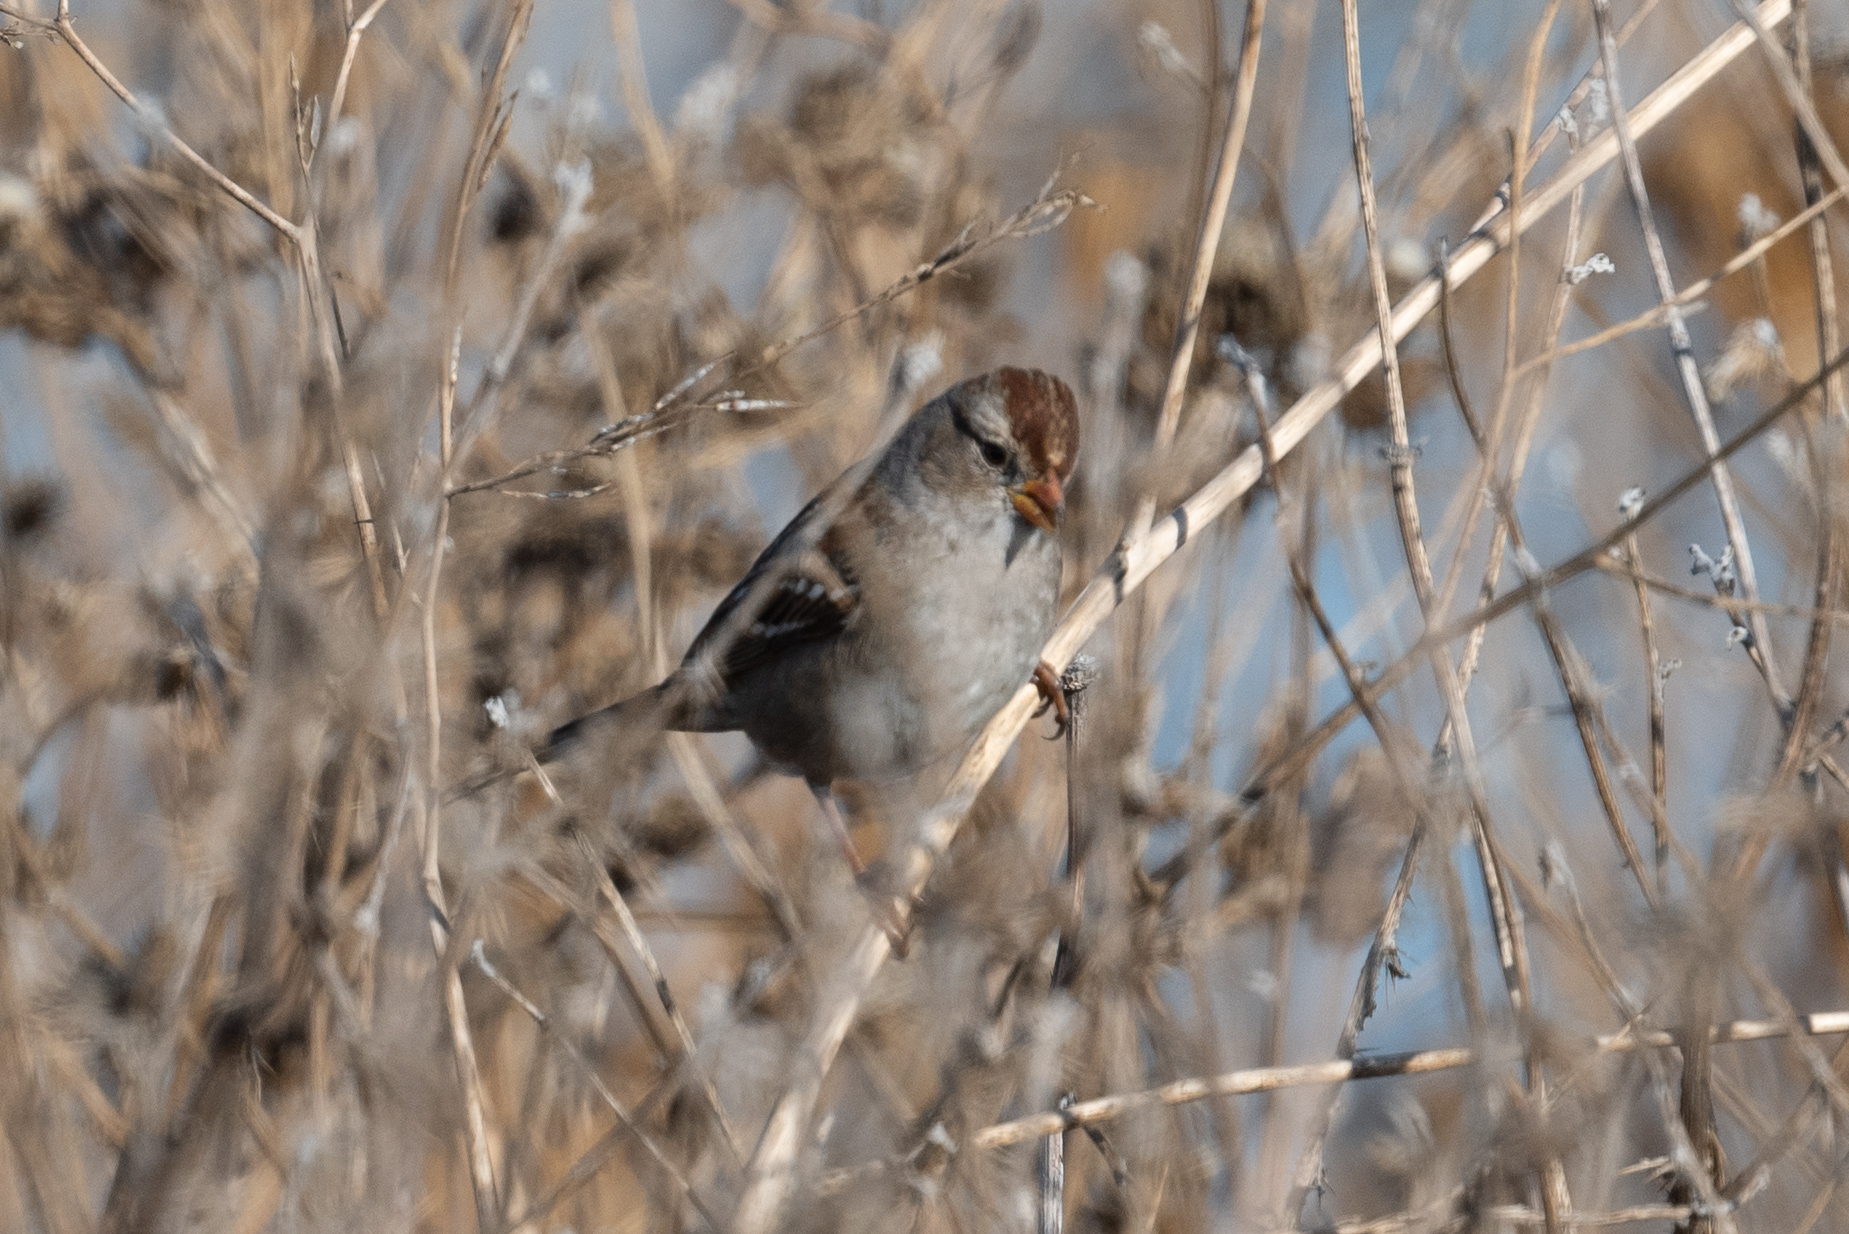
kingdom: Animalia
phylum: Chordata
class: Aves
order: Passeriformes
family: Passerellidae
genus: Zonotrichia
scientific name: Zonotrichia leucophrys
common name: White-crowned sparrow
